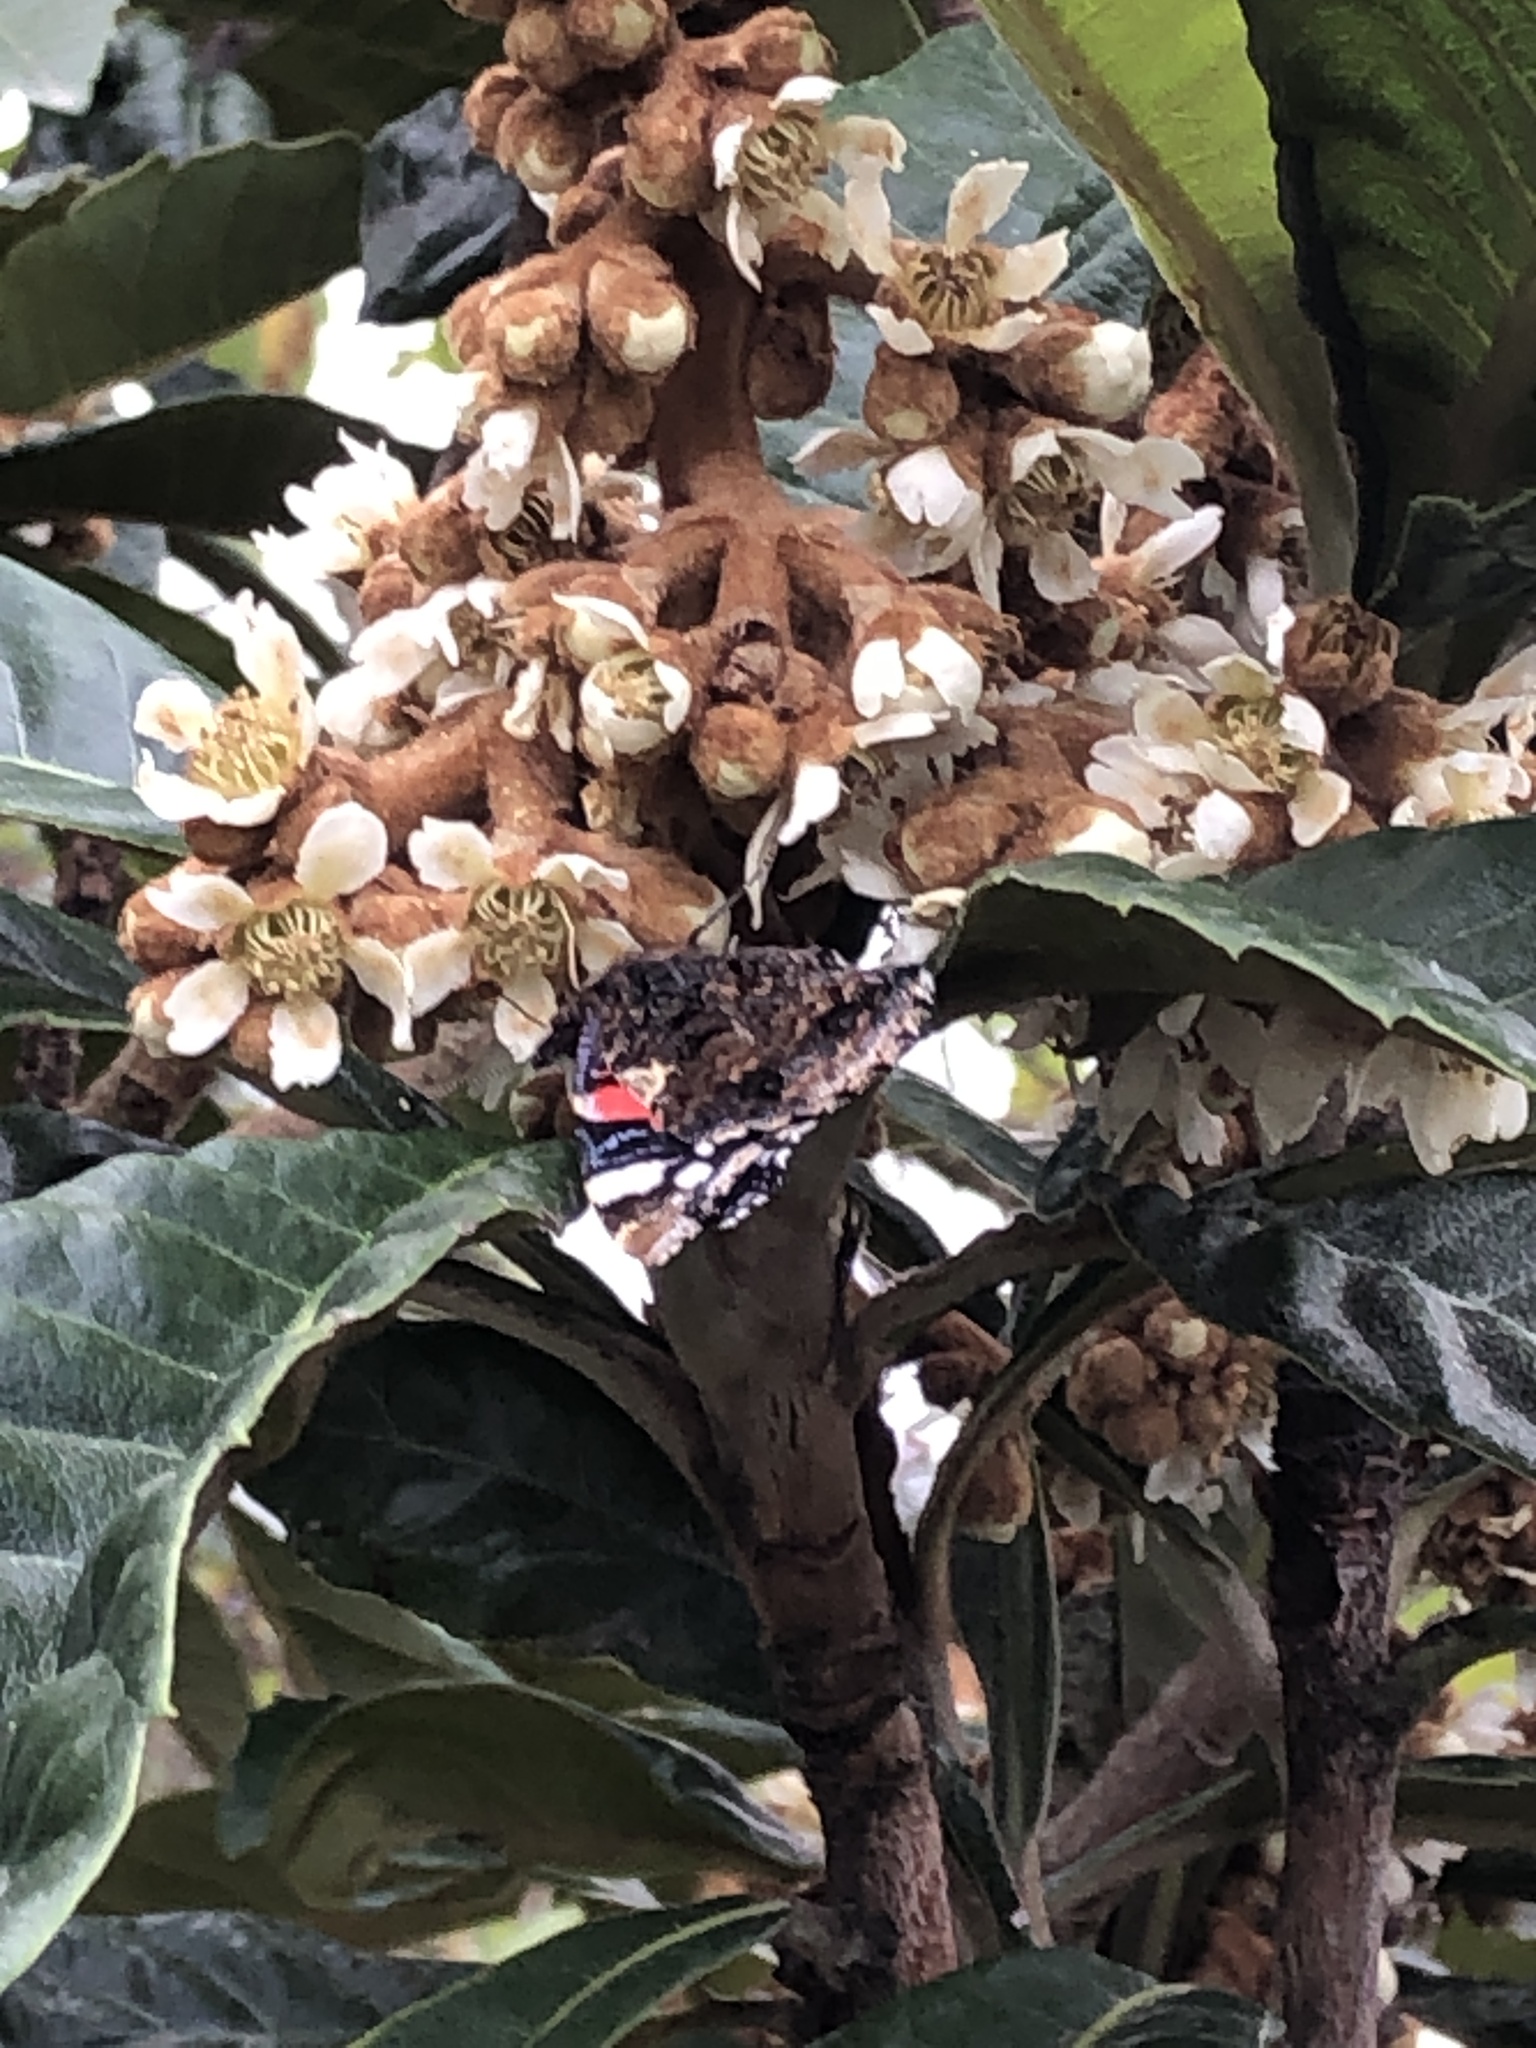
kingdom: Animalia
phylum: Arthropoda
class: Insecta
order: Lepidoptera
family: Nymphalidae
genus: Vanessa
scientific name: Vanessa atalanta
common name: Red admiral
